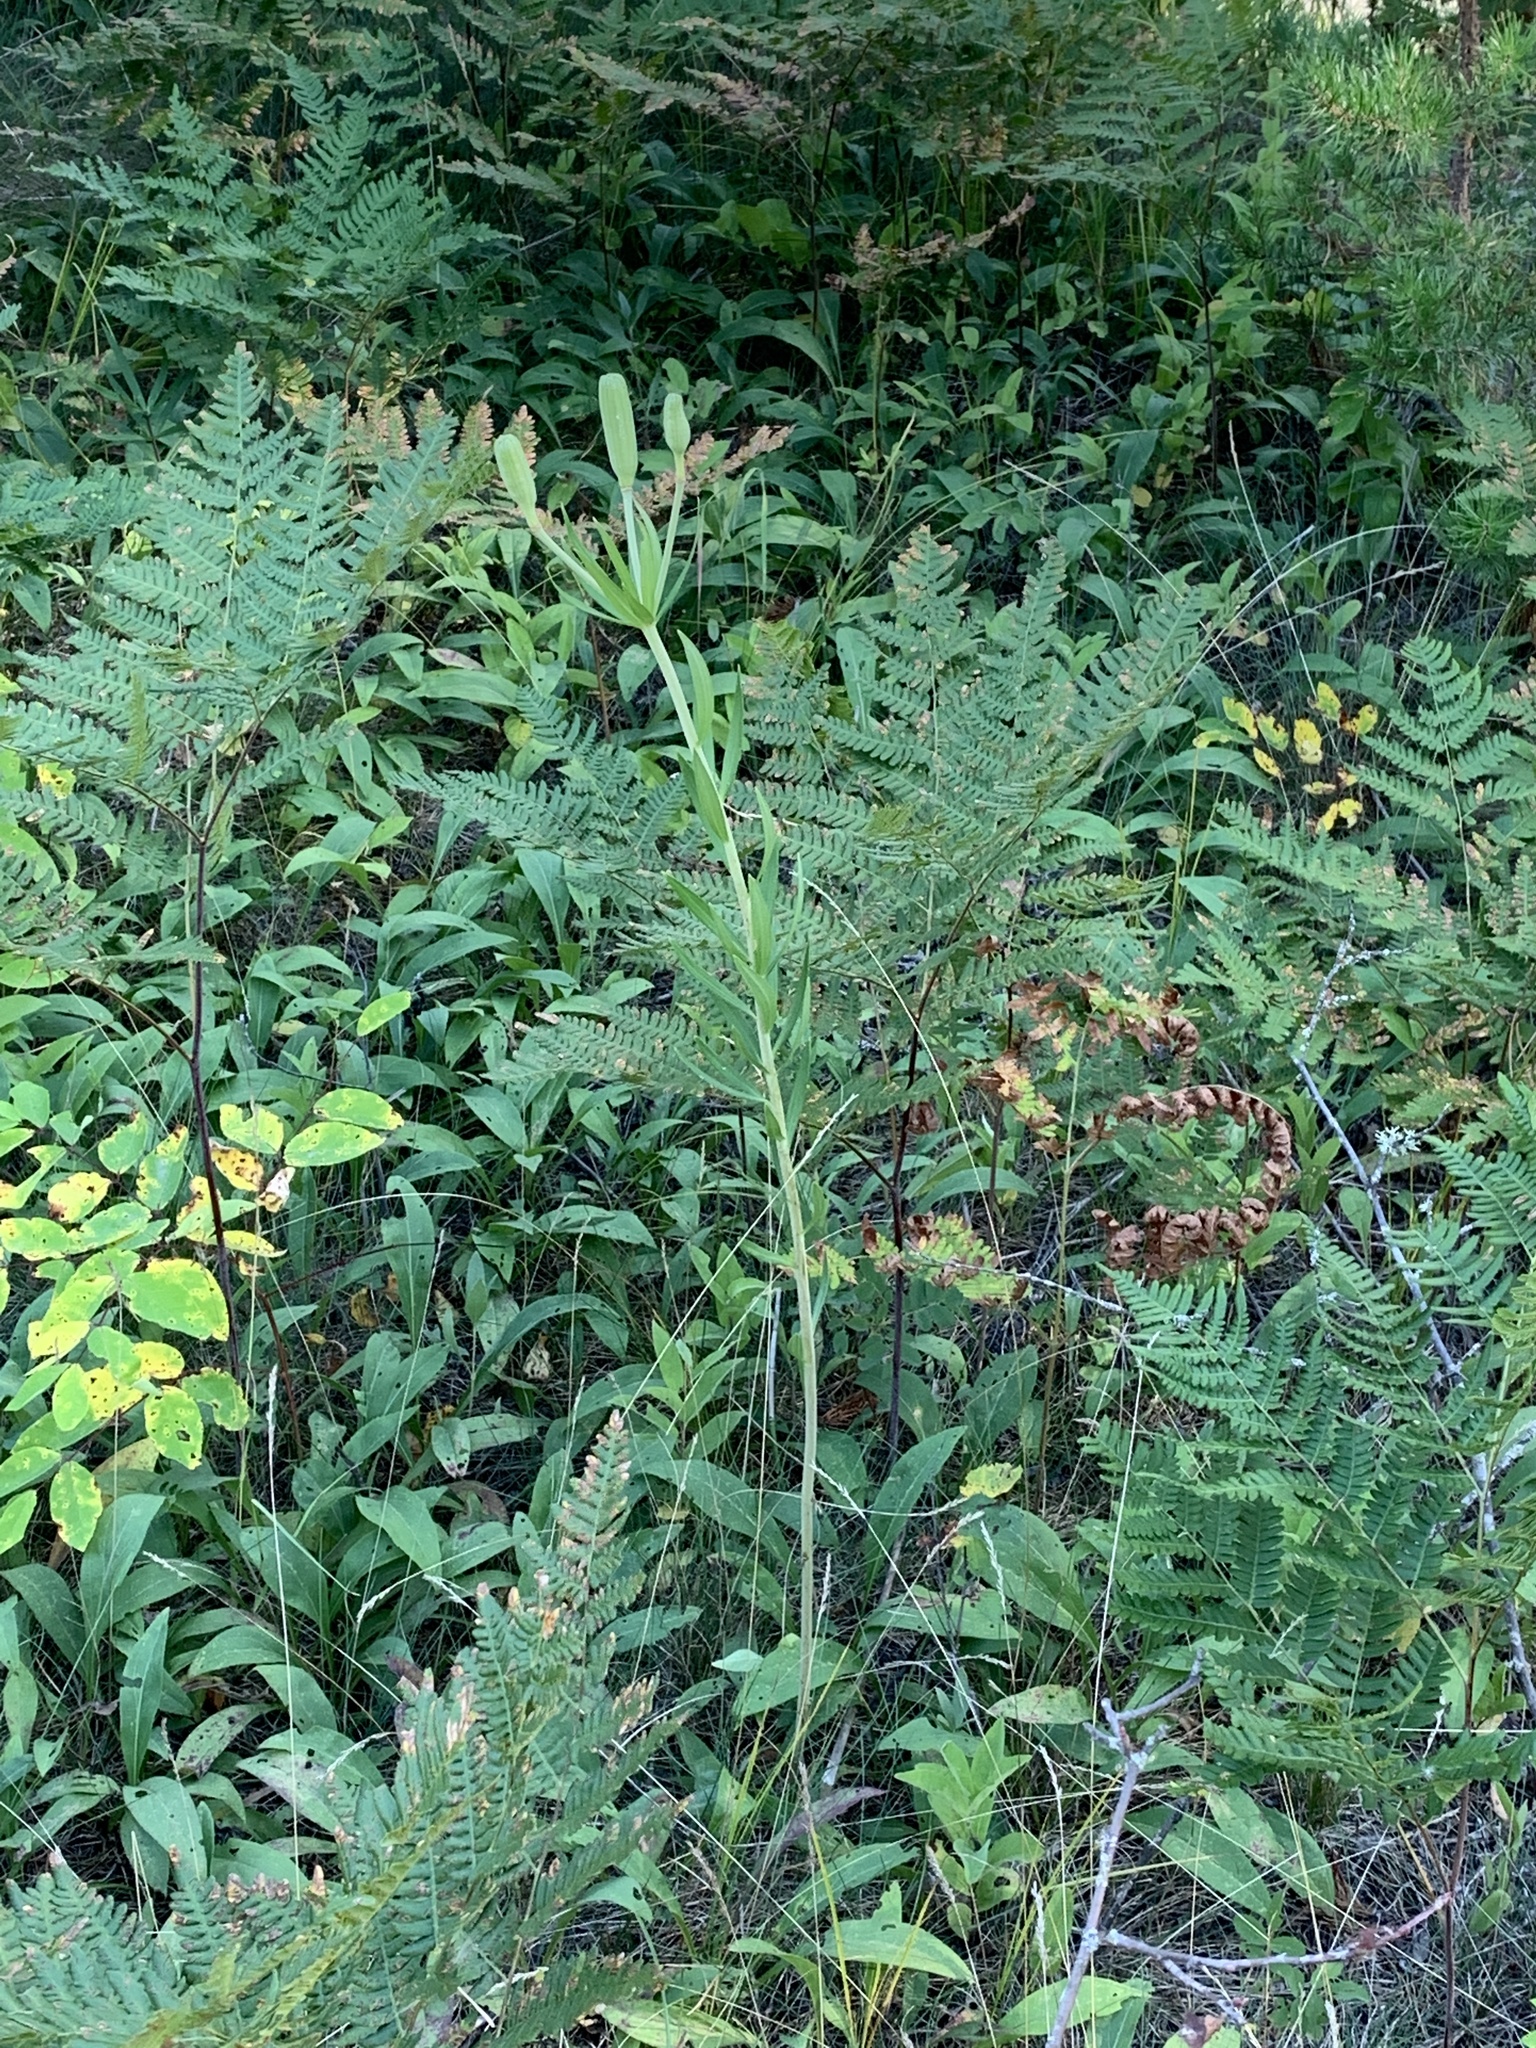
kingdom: Plantae
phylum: Tracheophyta
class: Liliopsida
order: Liliales
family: Liliaceae
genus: Lilium
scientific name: Lilium philadelphicum
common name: Red lily
